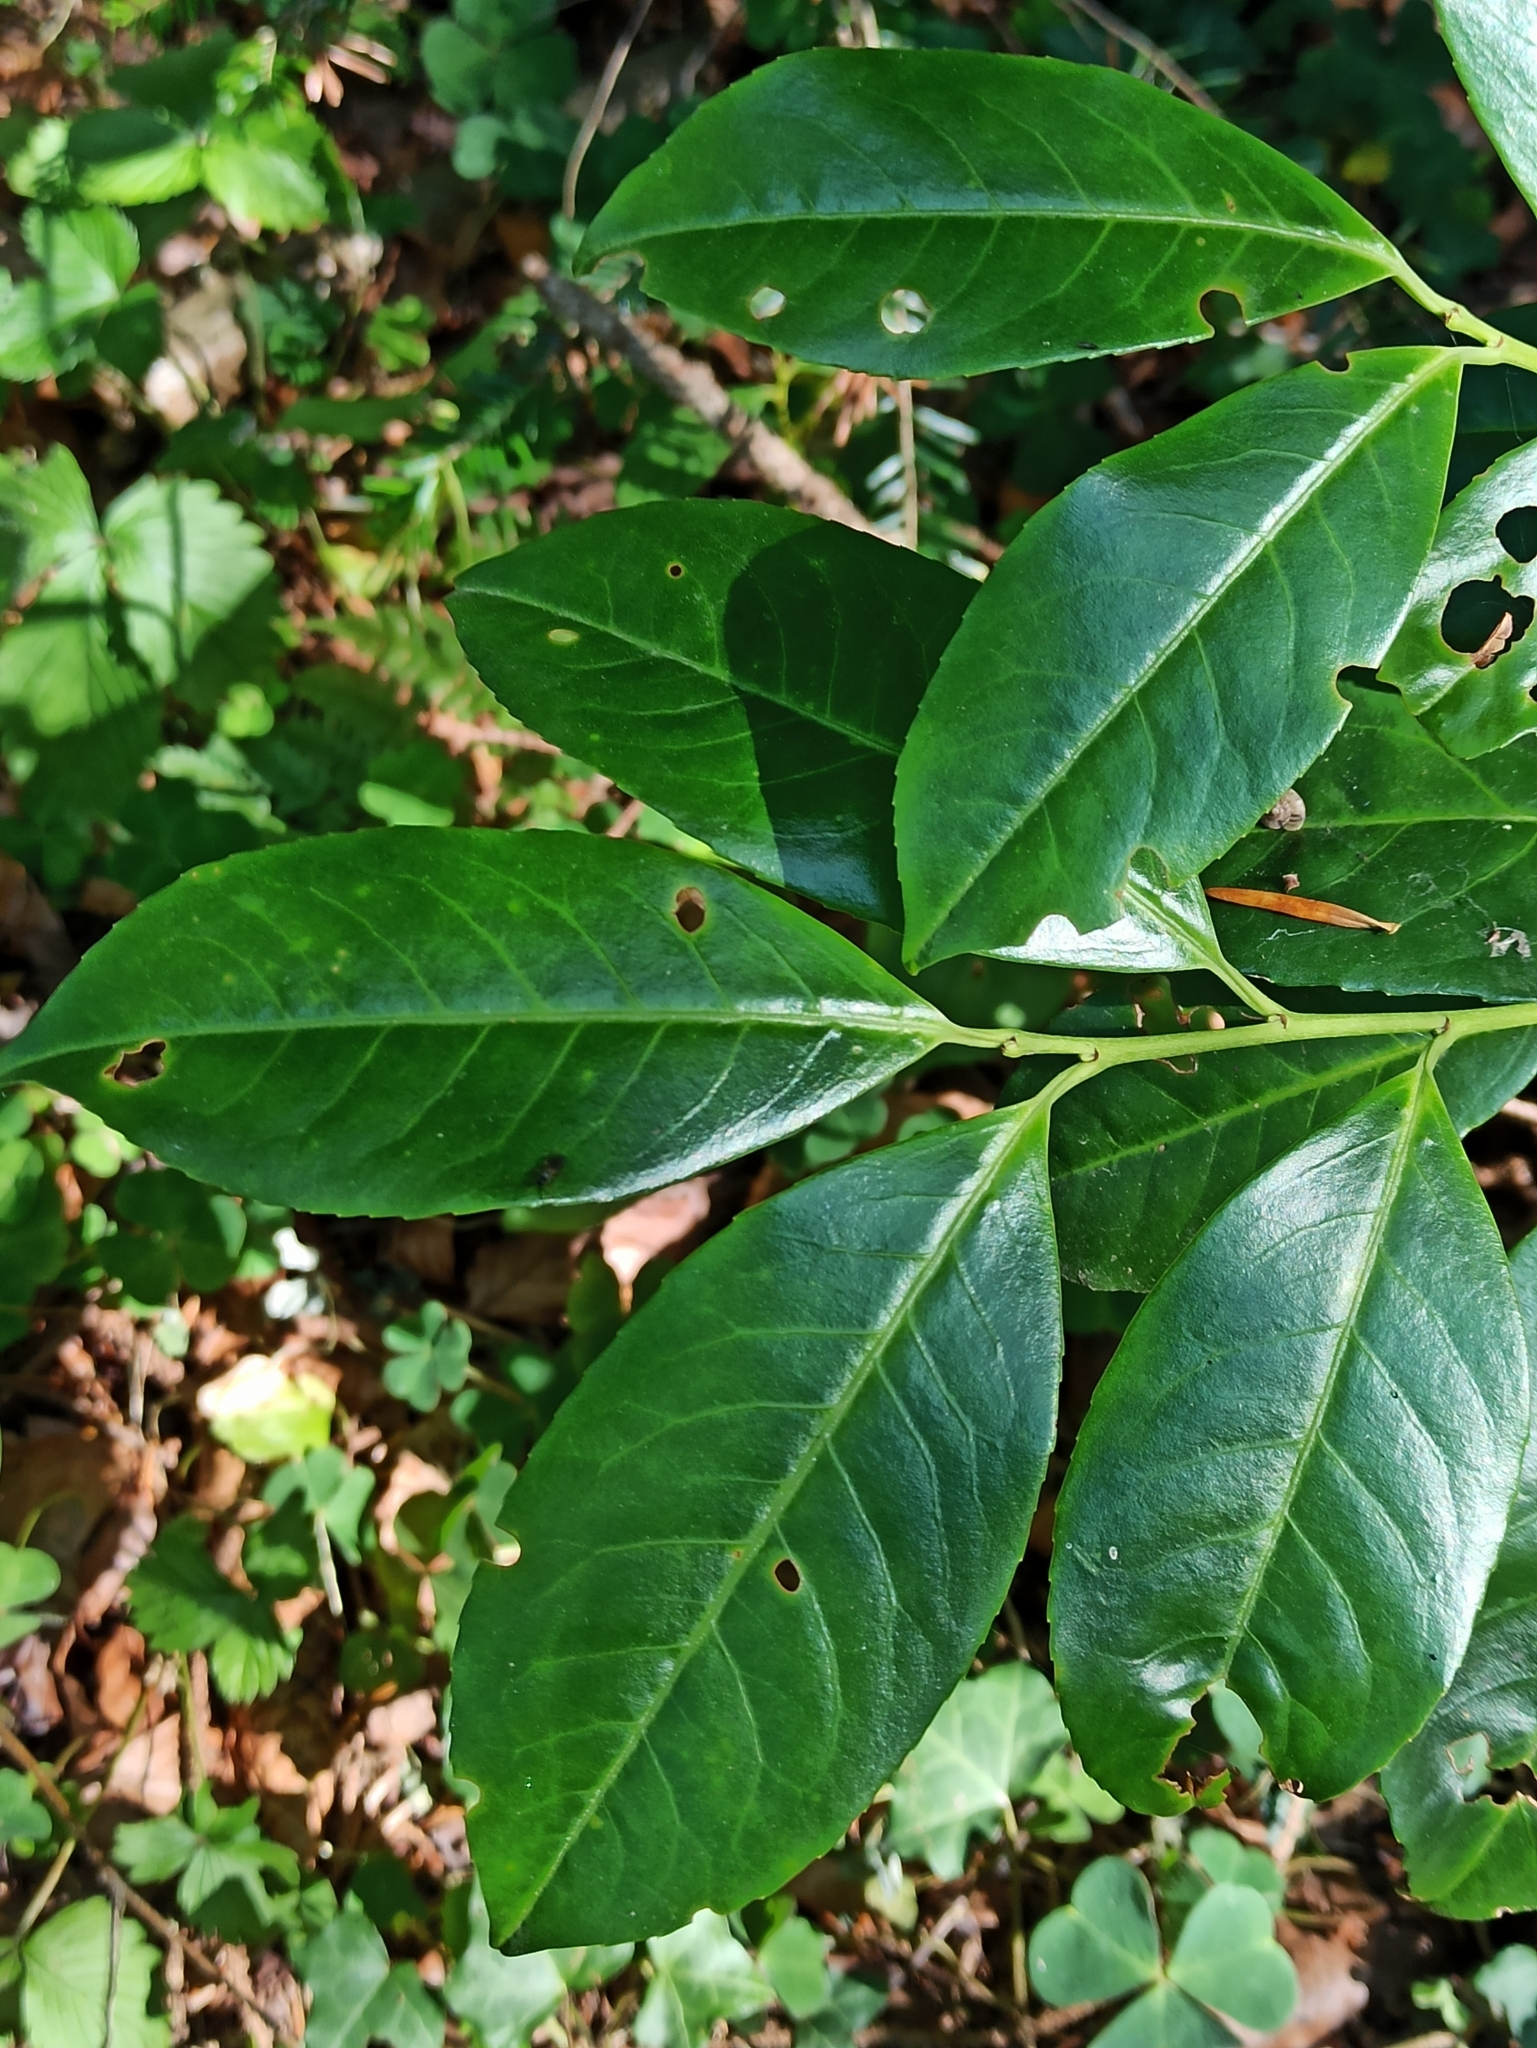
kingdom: Plantae
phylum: Tracheophyta
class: Magnoliopsida
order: Rosales
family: Rosaceae
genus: Prunus
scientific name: Prunus laurocerasus
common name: Cherry laurel
